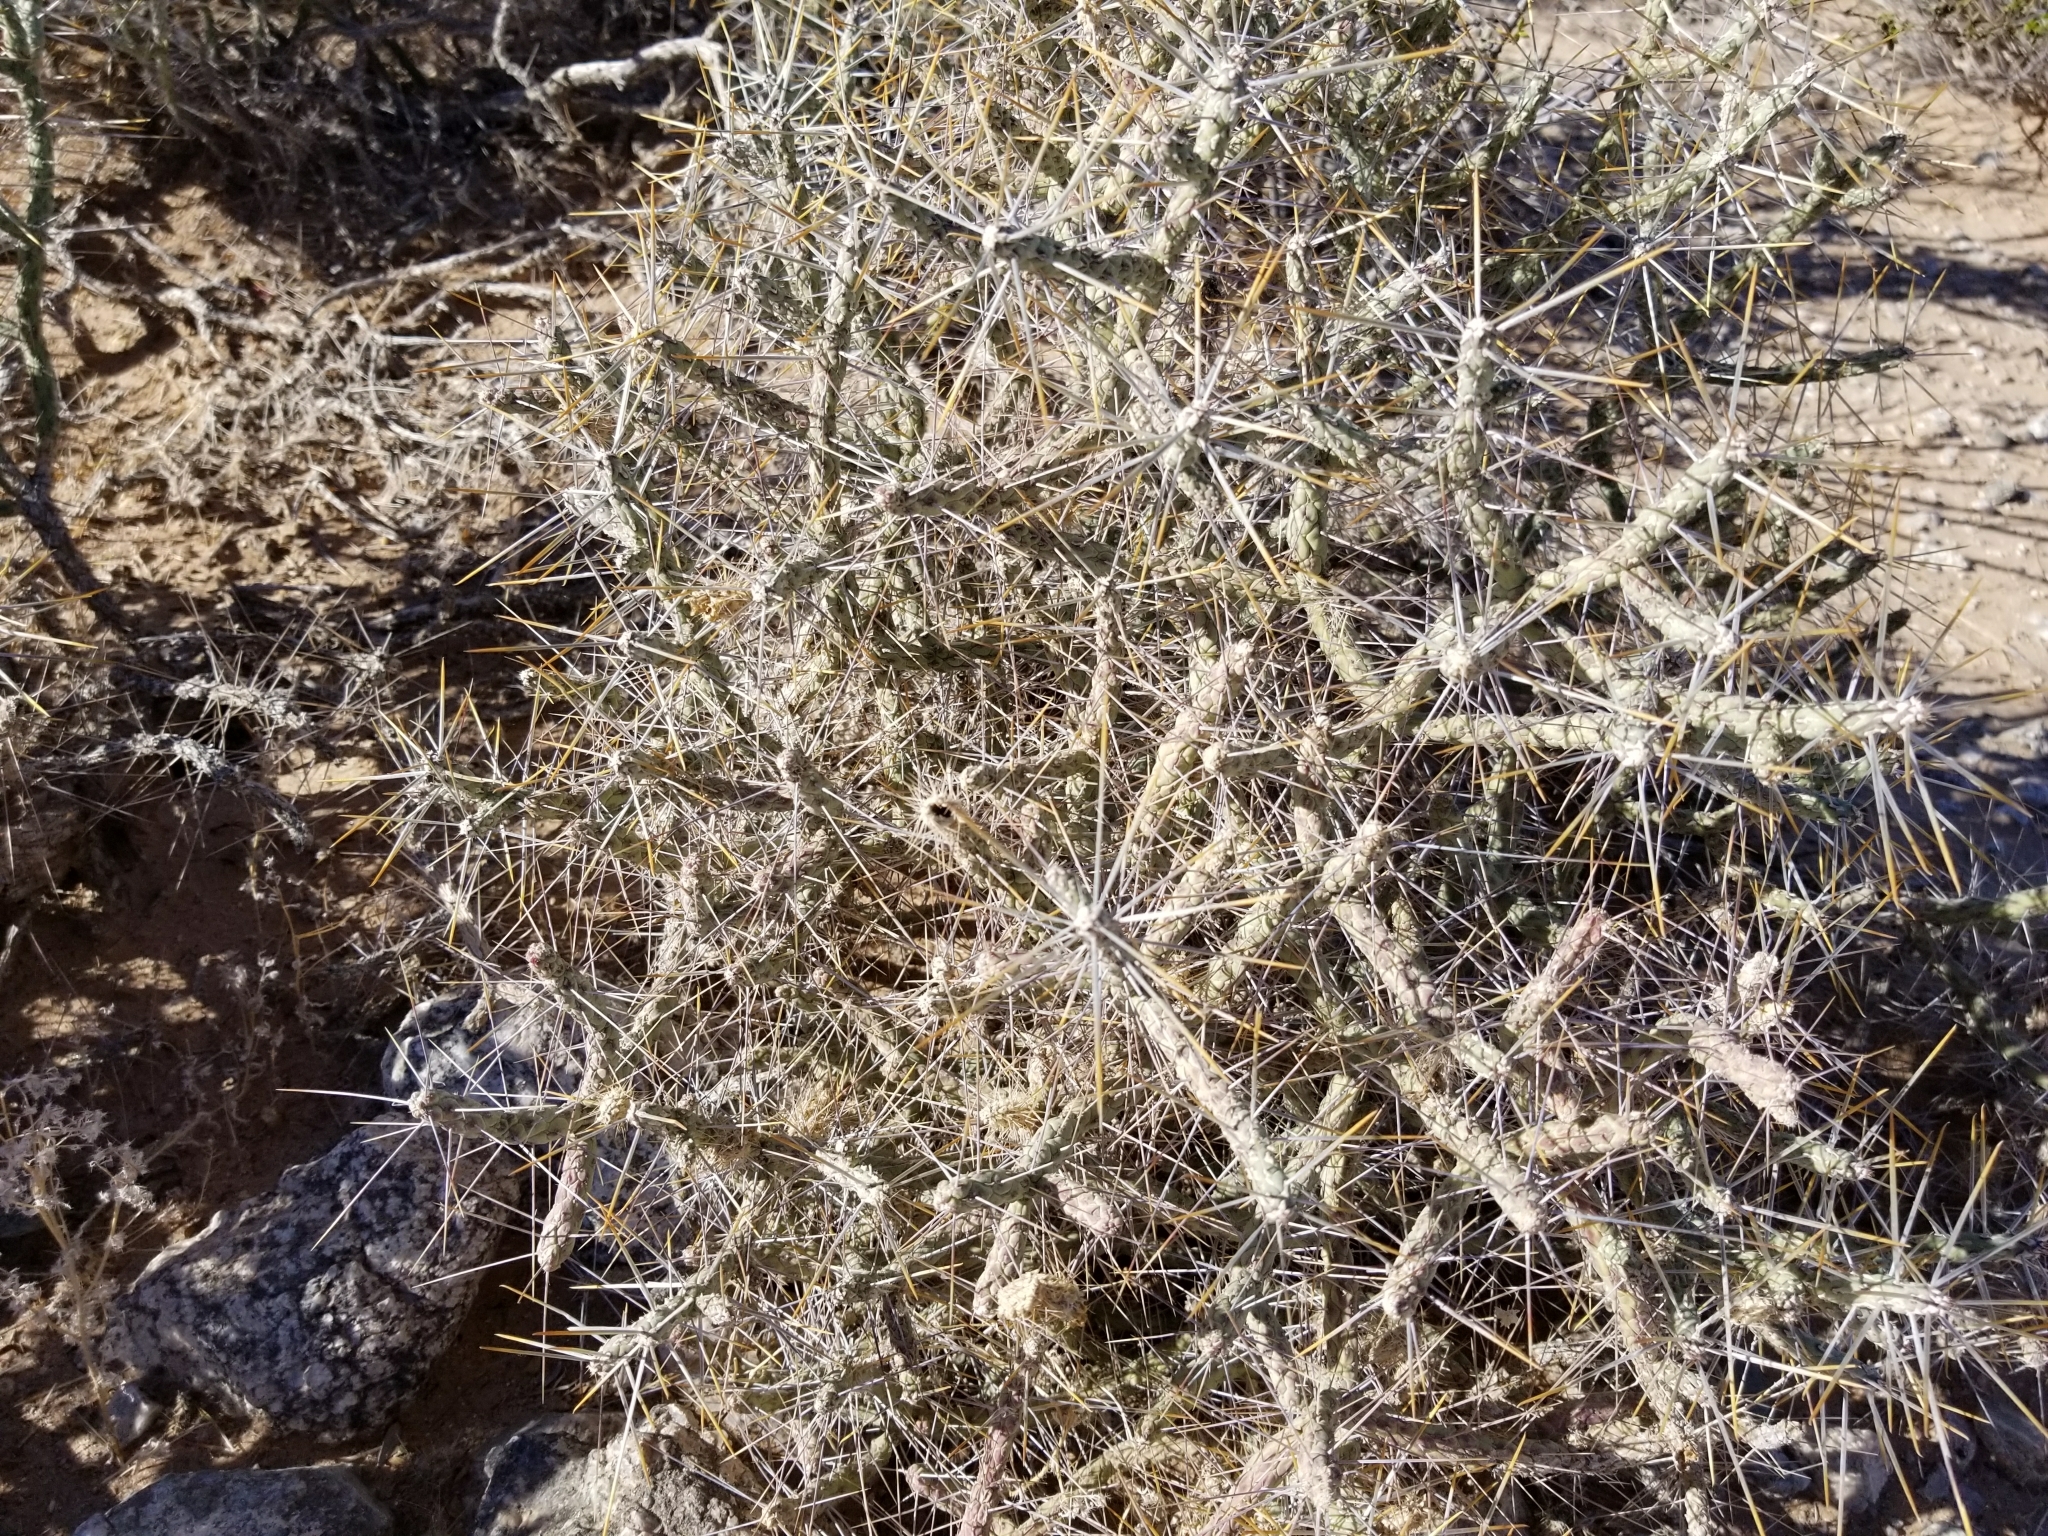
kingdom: Plantae
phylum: Tracheophyta
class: Magnoliopsida
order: Caryophyllales
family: Cactaceae
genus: Cylindropuntia
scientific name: Cylindropuntia ramosissima
